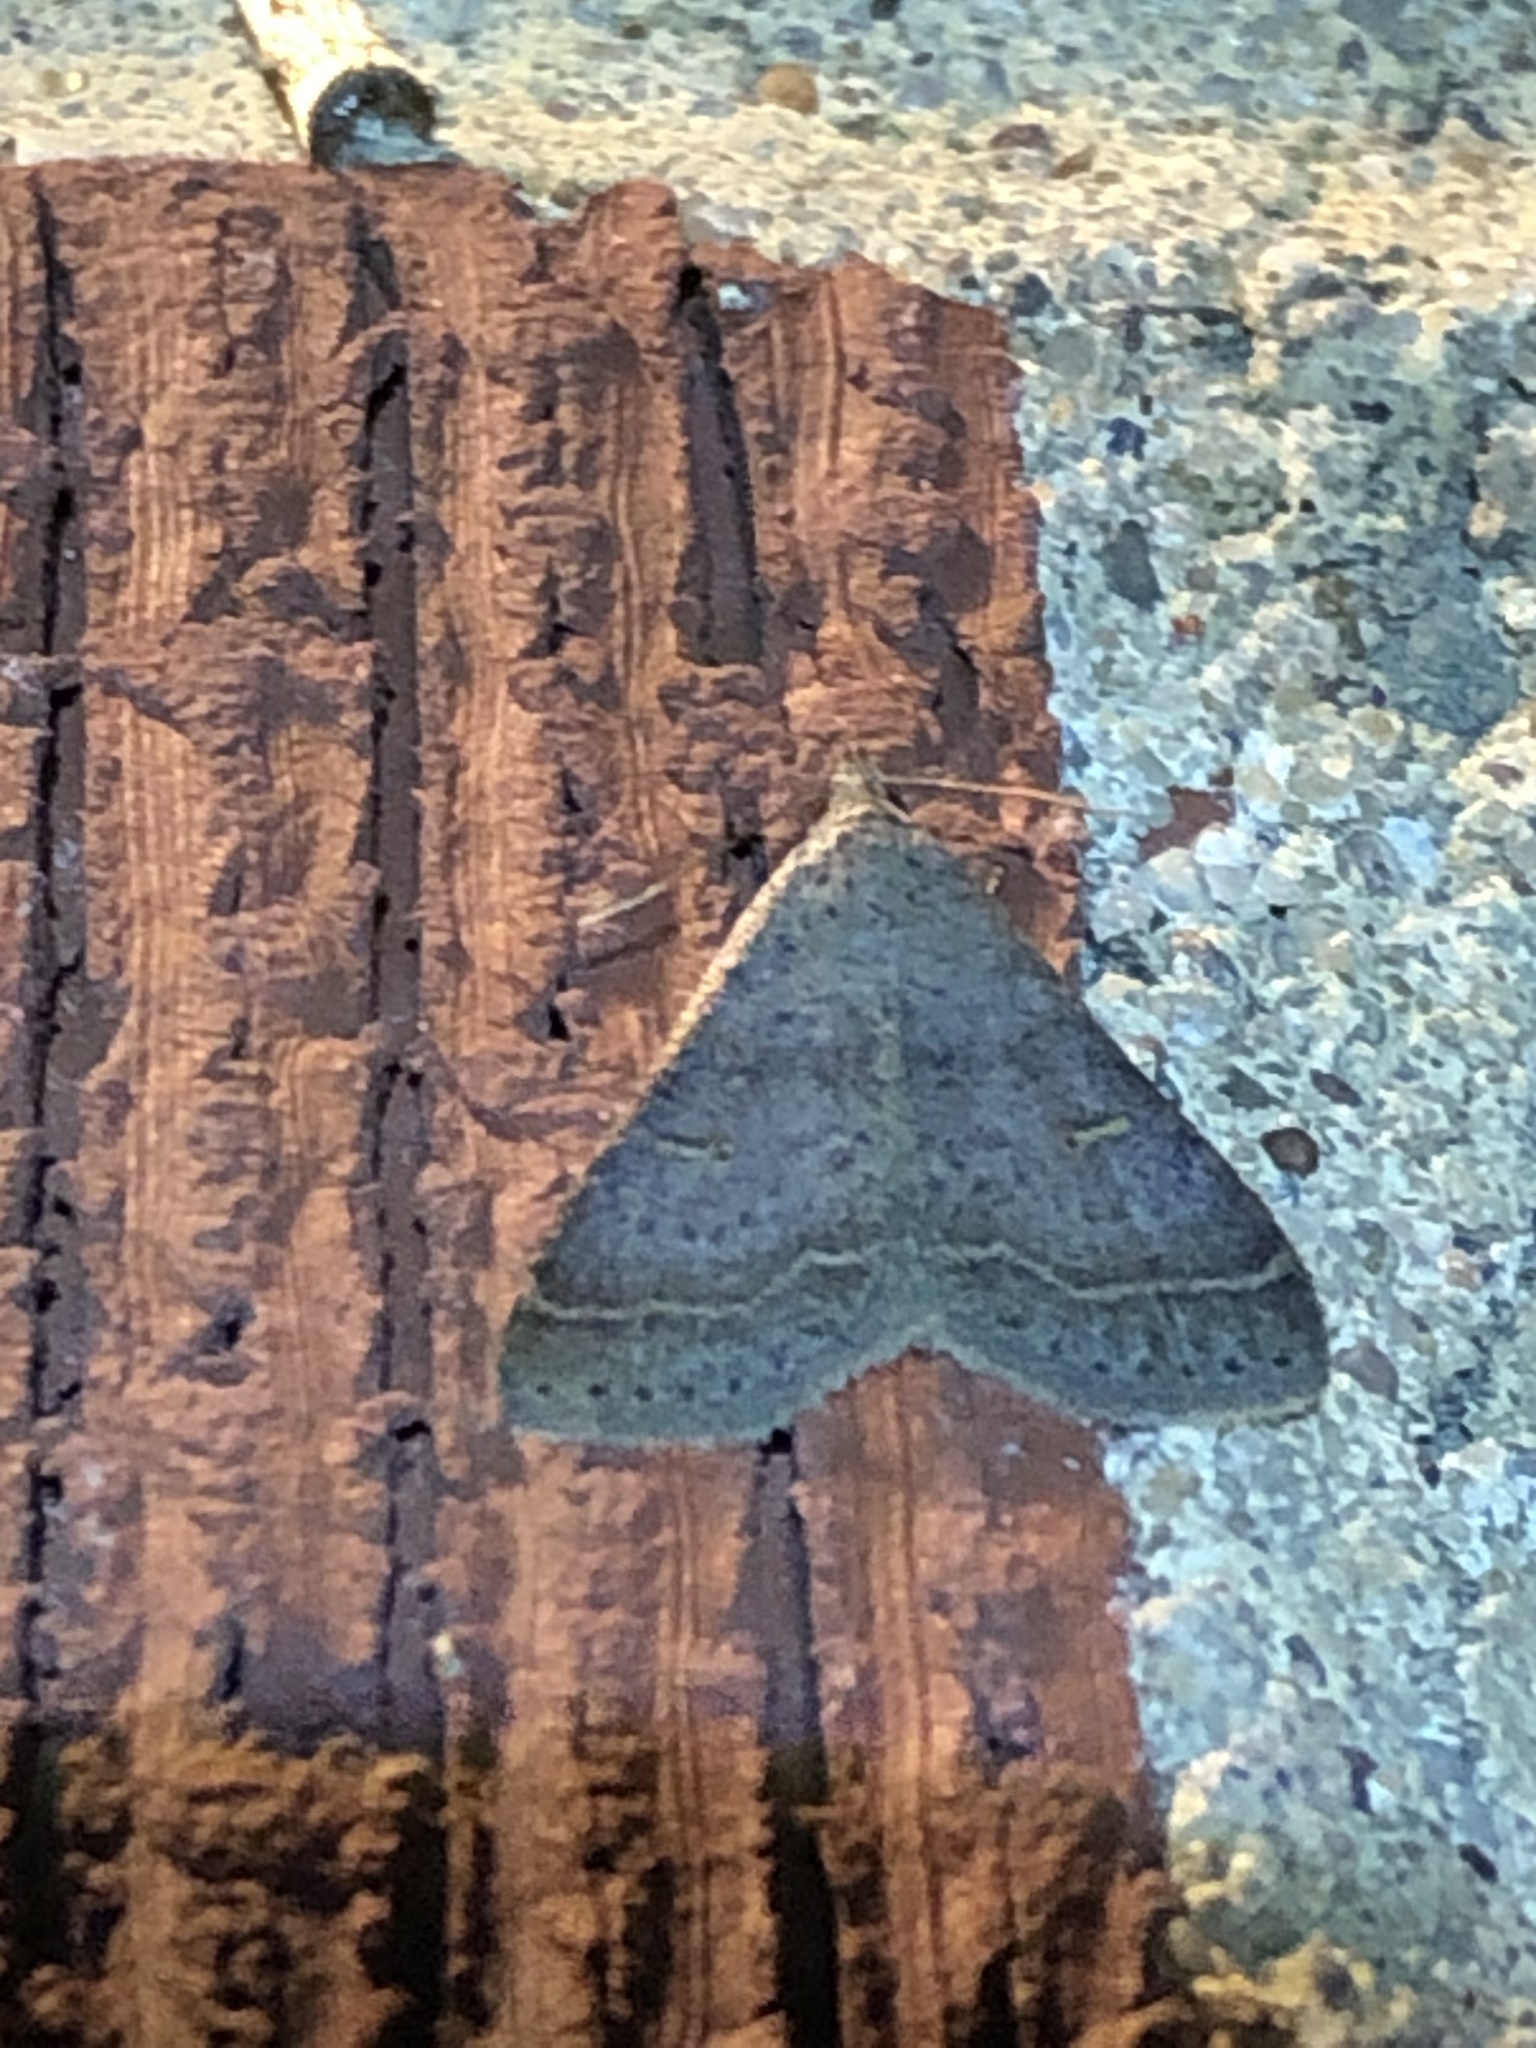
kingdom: Animalia
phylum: Arthropoda
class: Insecta
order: Lepidoptera
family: Erebidae
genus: Bleptina
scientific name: Bleptina caradrinalis
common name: Bent-winged owlet
